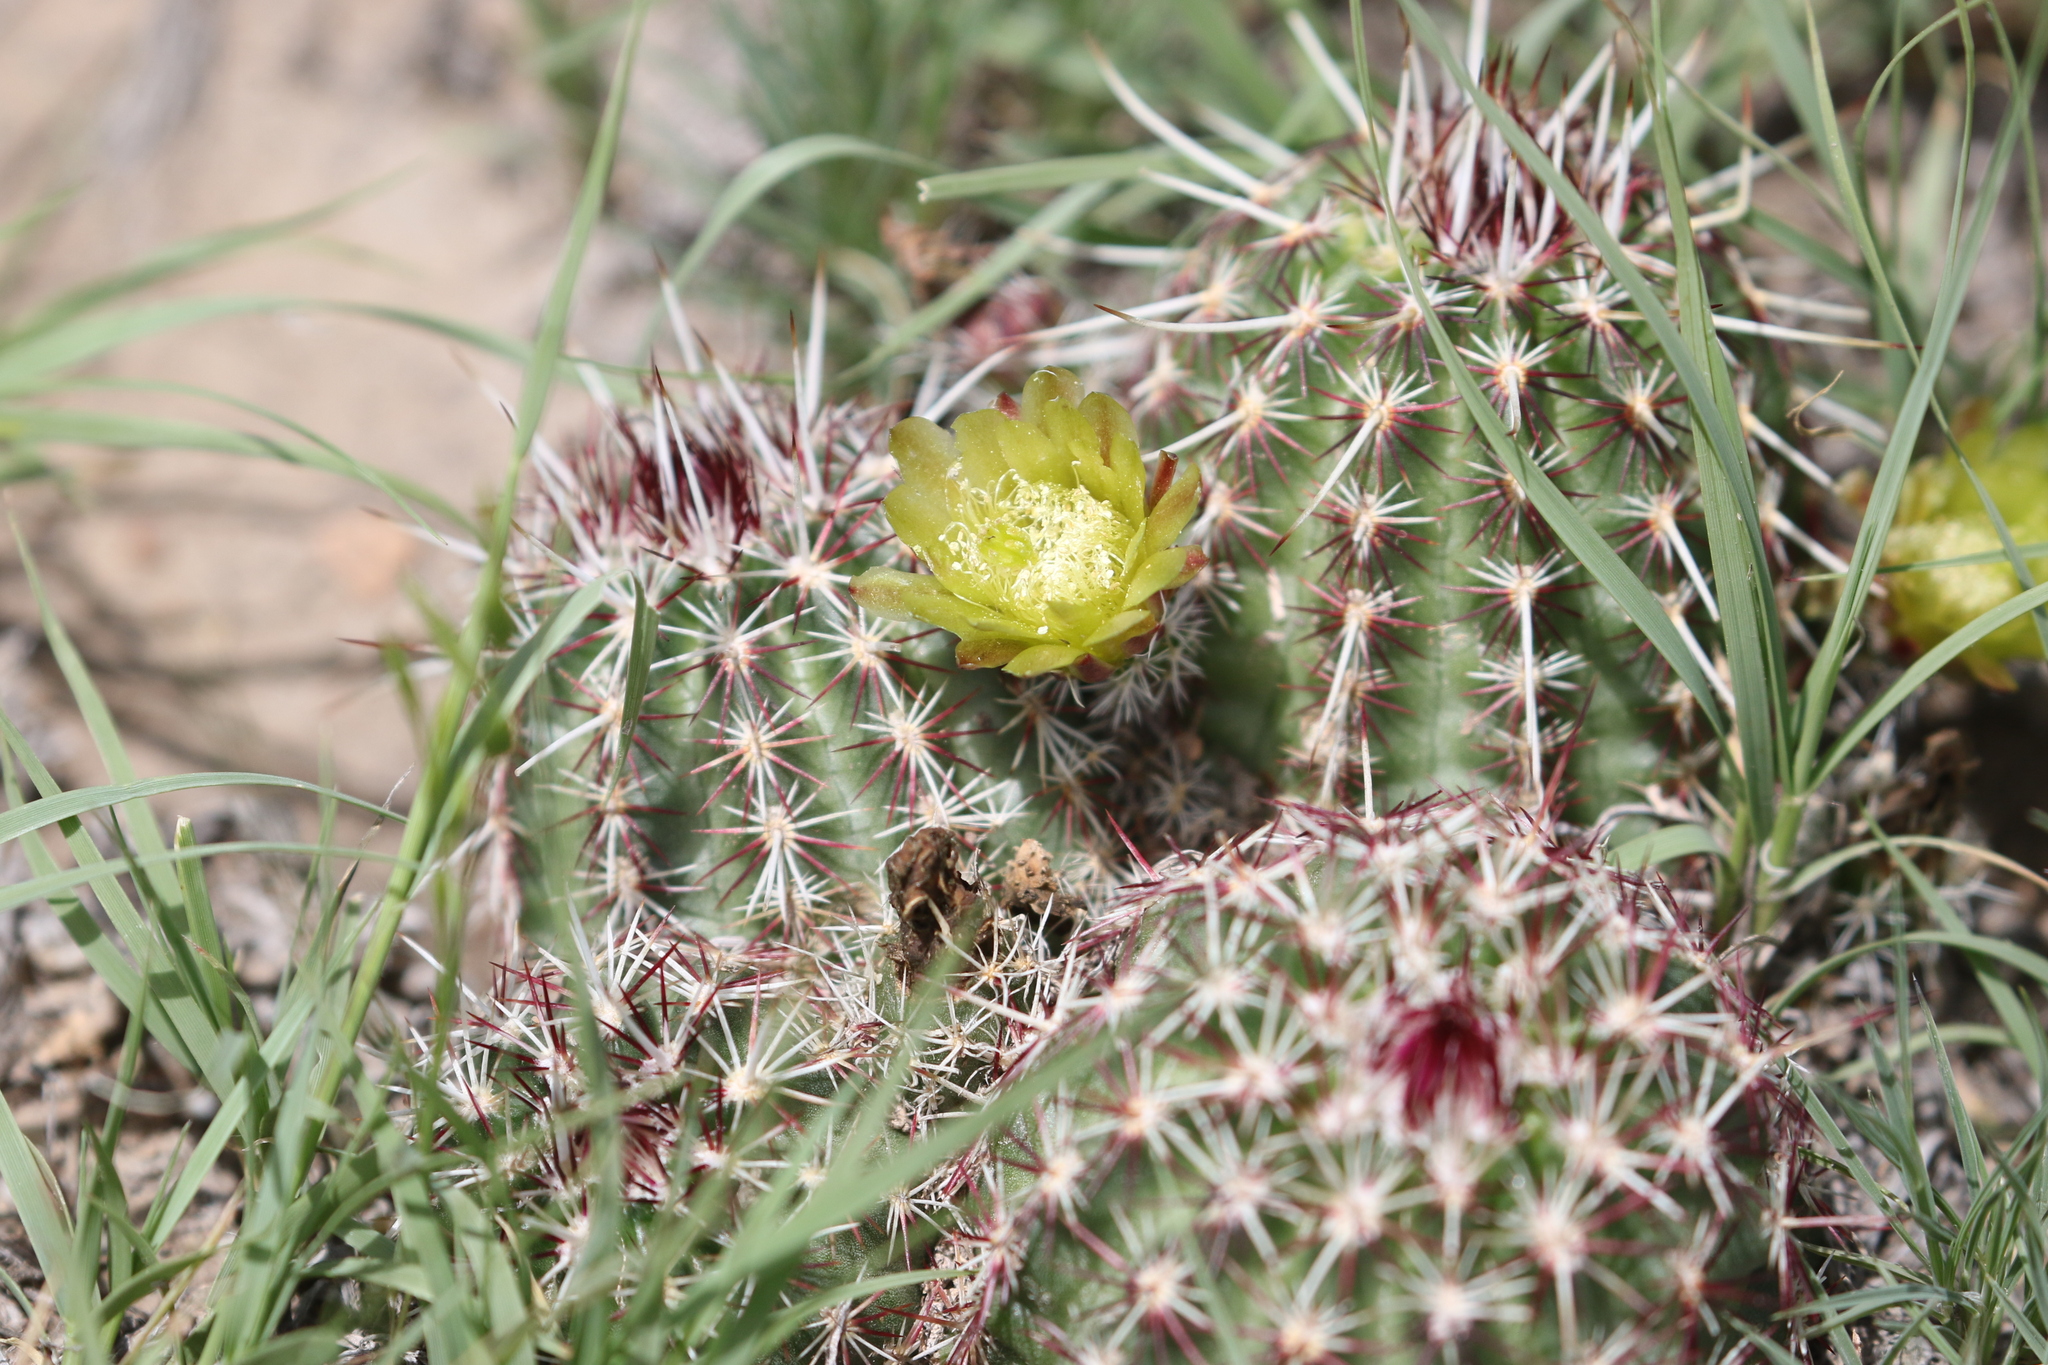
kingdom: Plantae
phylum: Tracheophyta
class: Magnoliopsida
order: Caryophyllales
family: Cactaceae
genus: Echinocereus
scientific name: Echinocereus viridiflorus
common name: Nylon hedgehog cactus
